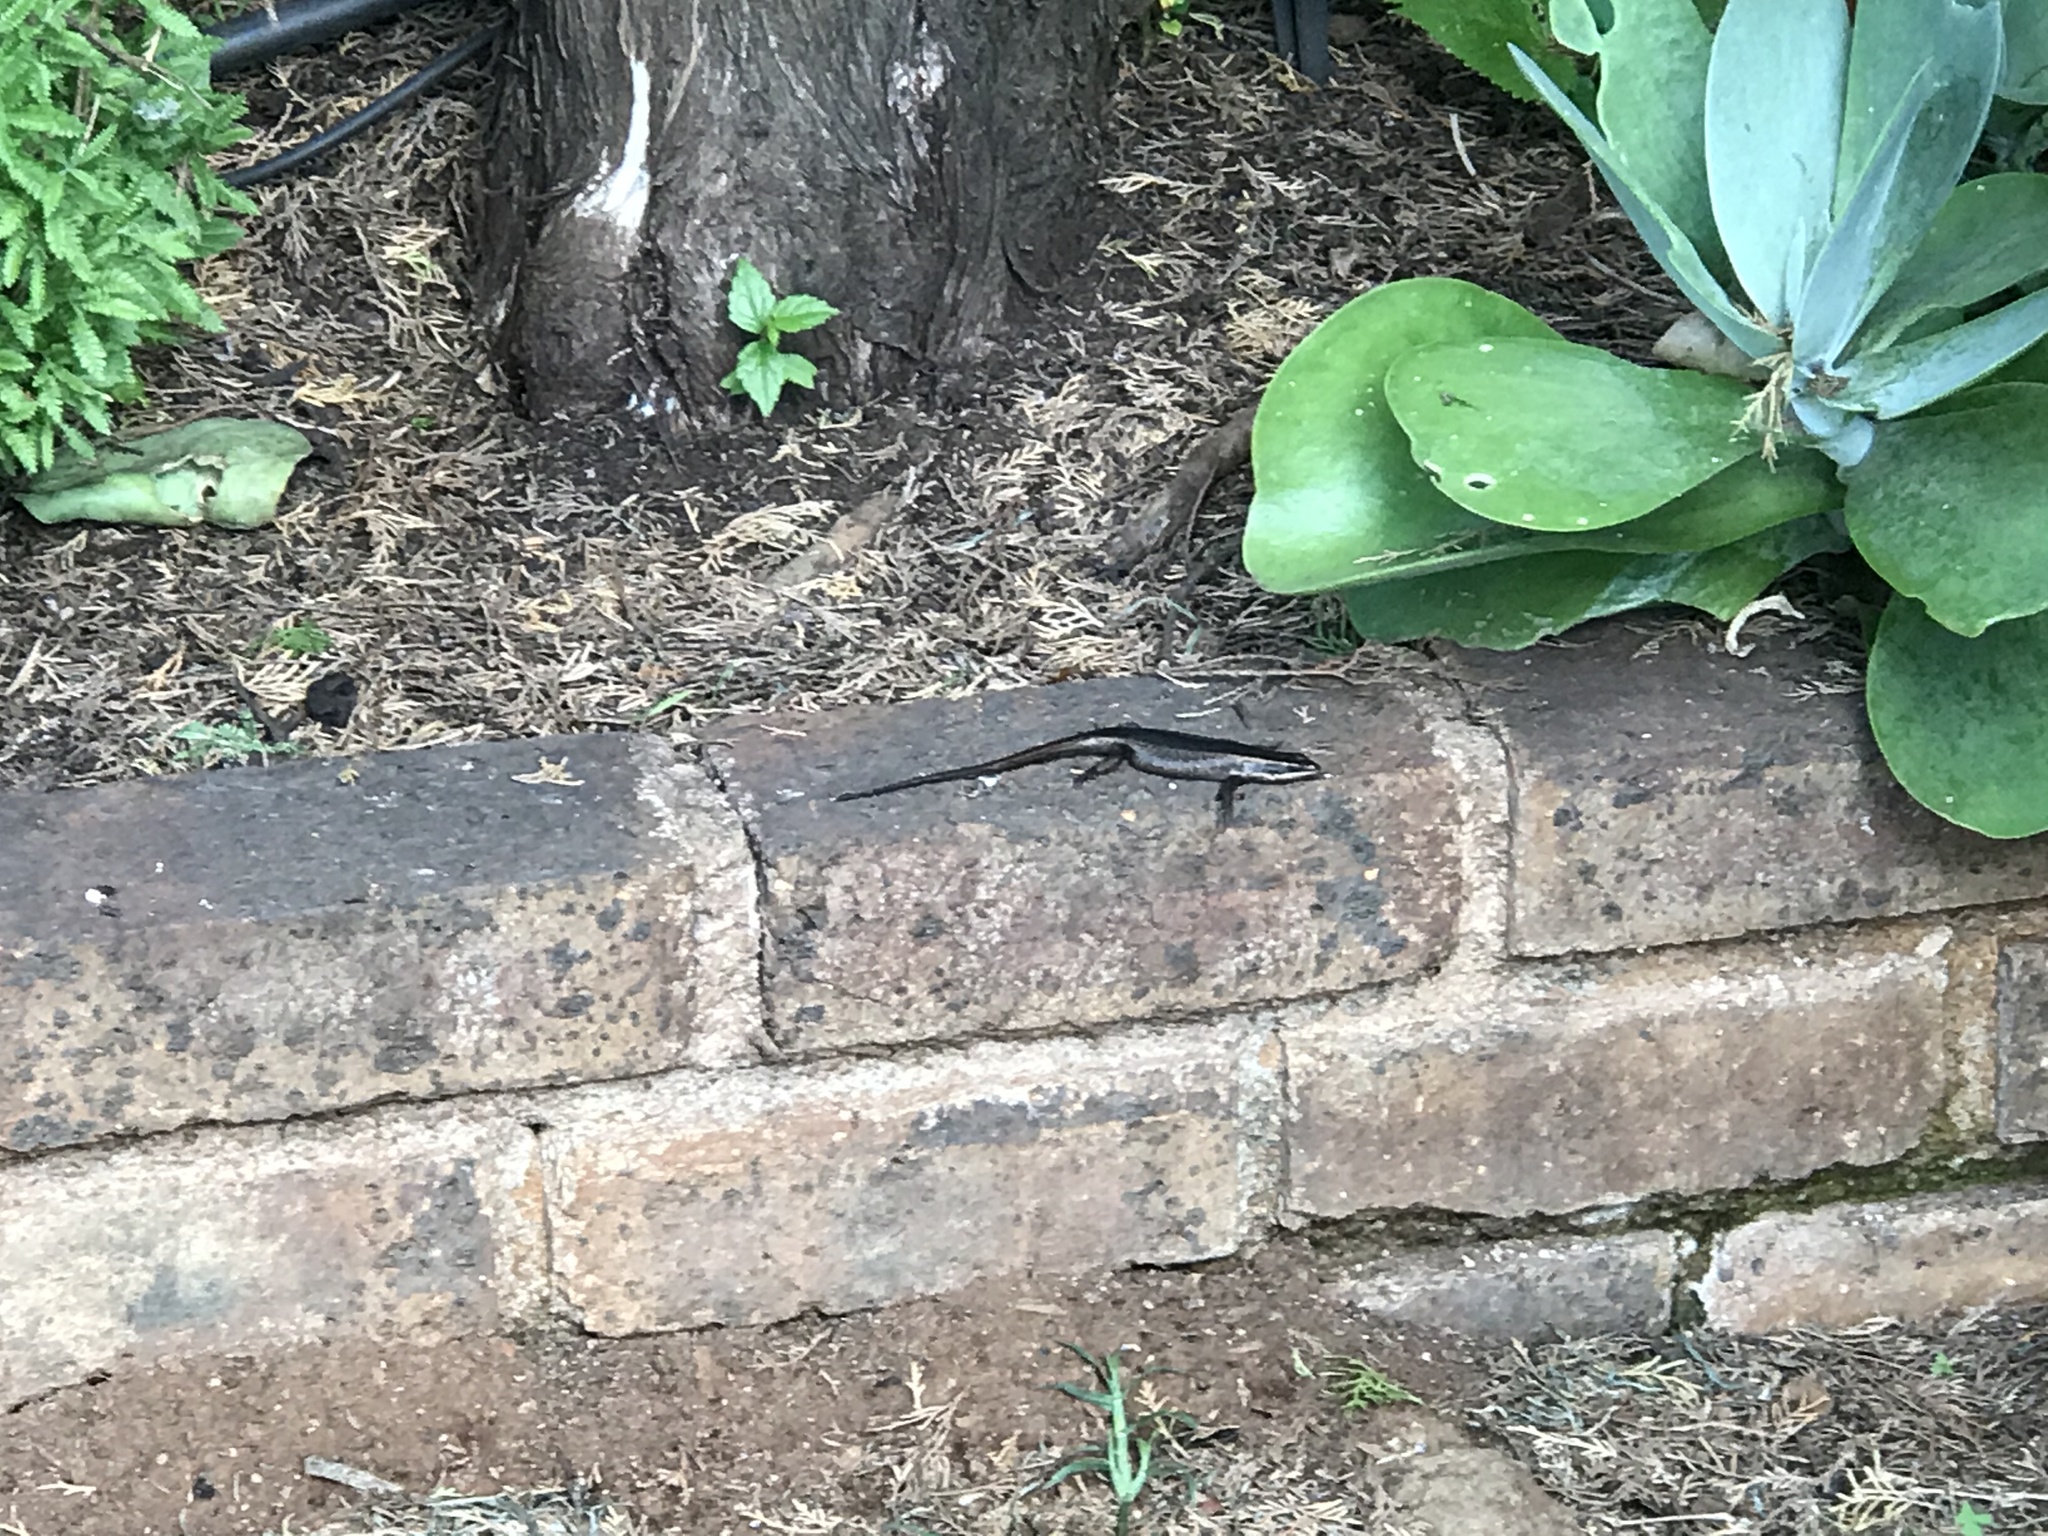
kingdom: Animalia
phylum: Chordata
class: Squamata
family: Scincidae
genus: Trachylepis
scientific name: Trachylepis punctatissima
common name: Montane speckled skink
